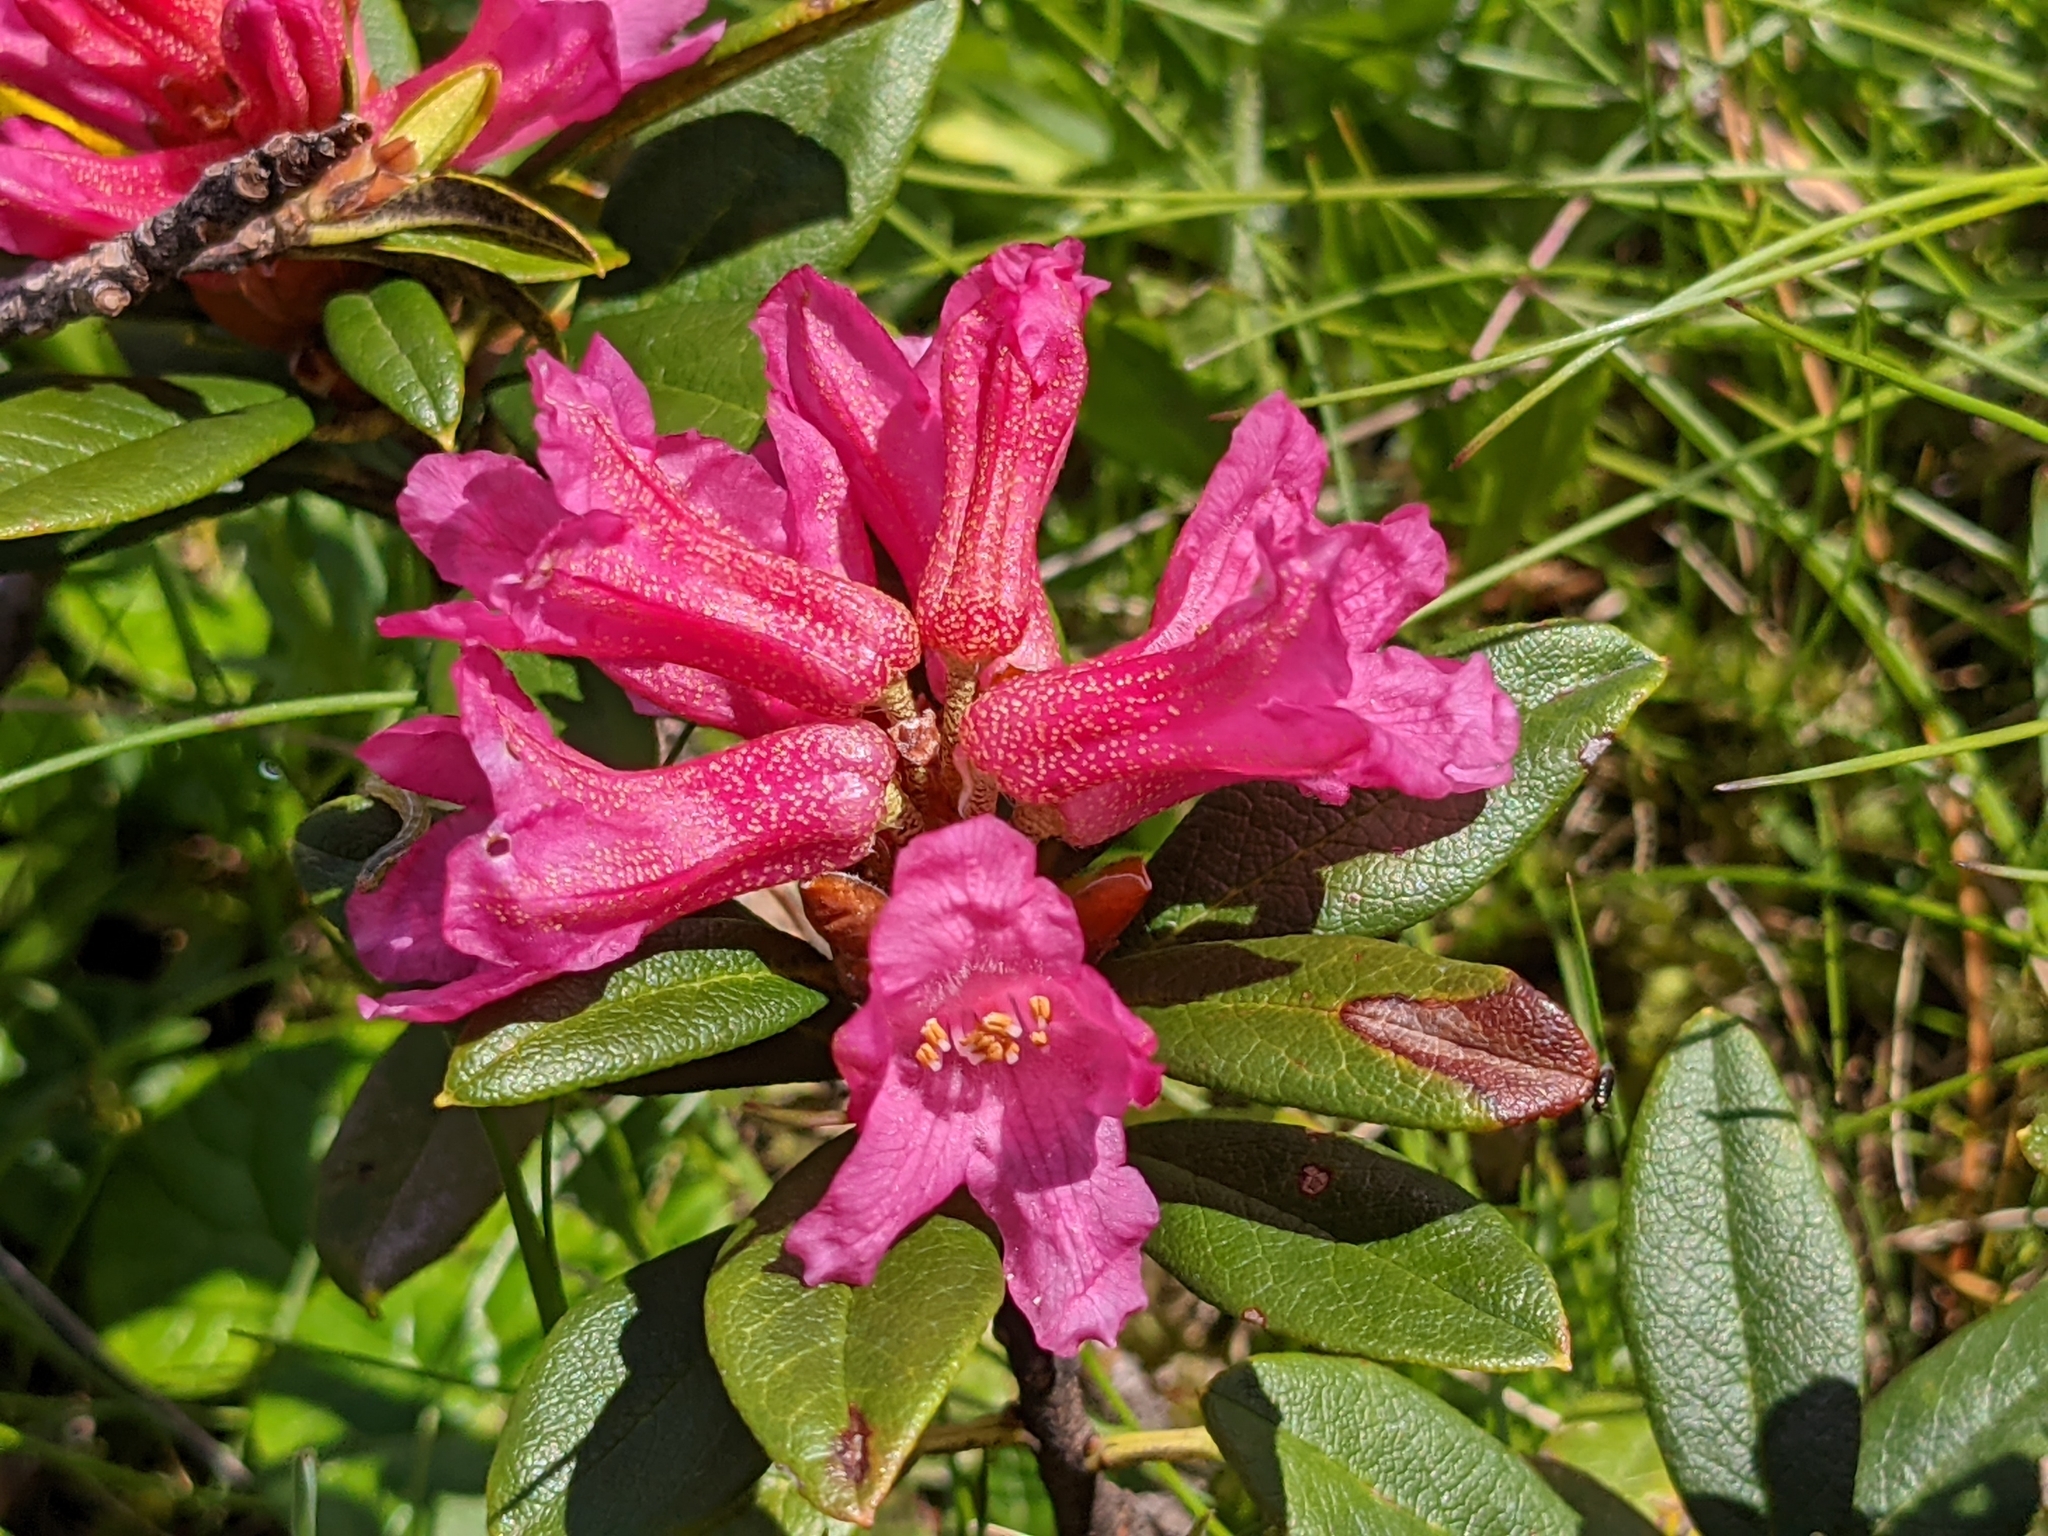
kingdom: Plantae
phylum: Tracheophyta
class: Magnoliopsida
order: Ericales
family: Ericaceae
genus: Rhododendron
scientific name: Rhododendron ferrugineum
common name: Alpenrose
